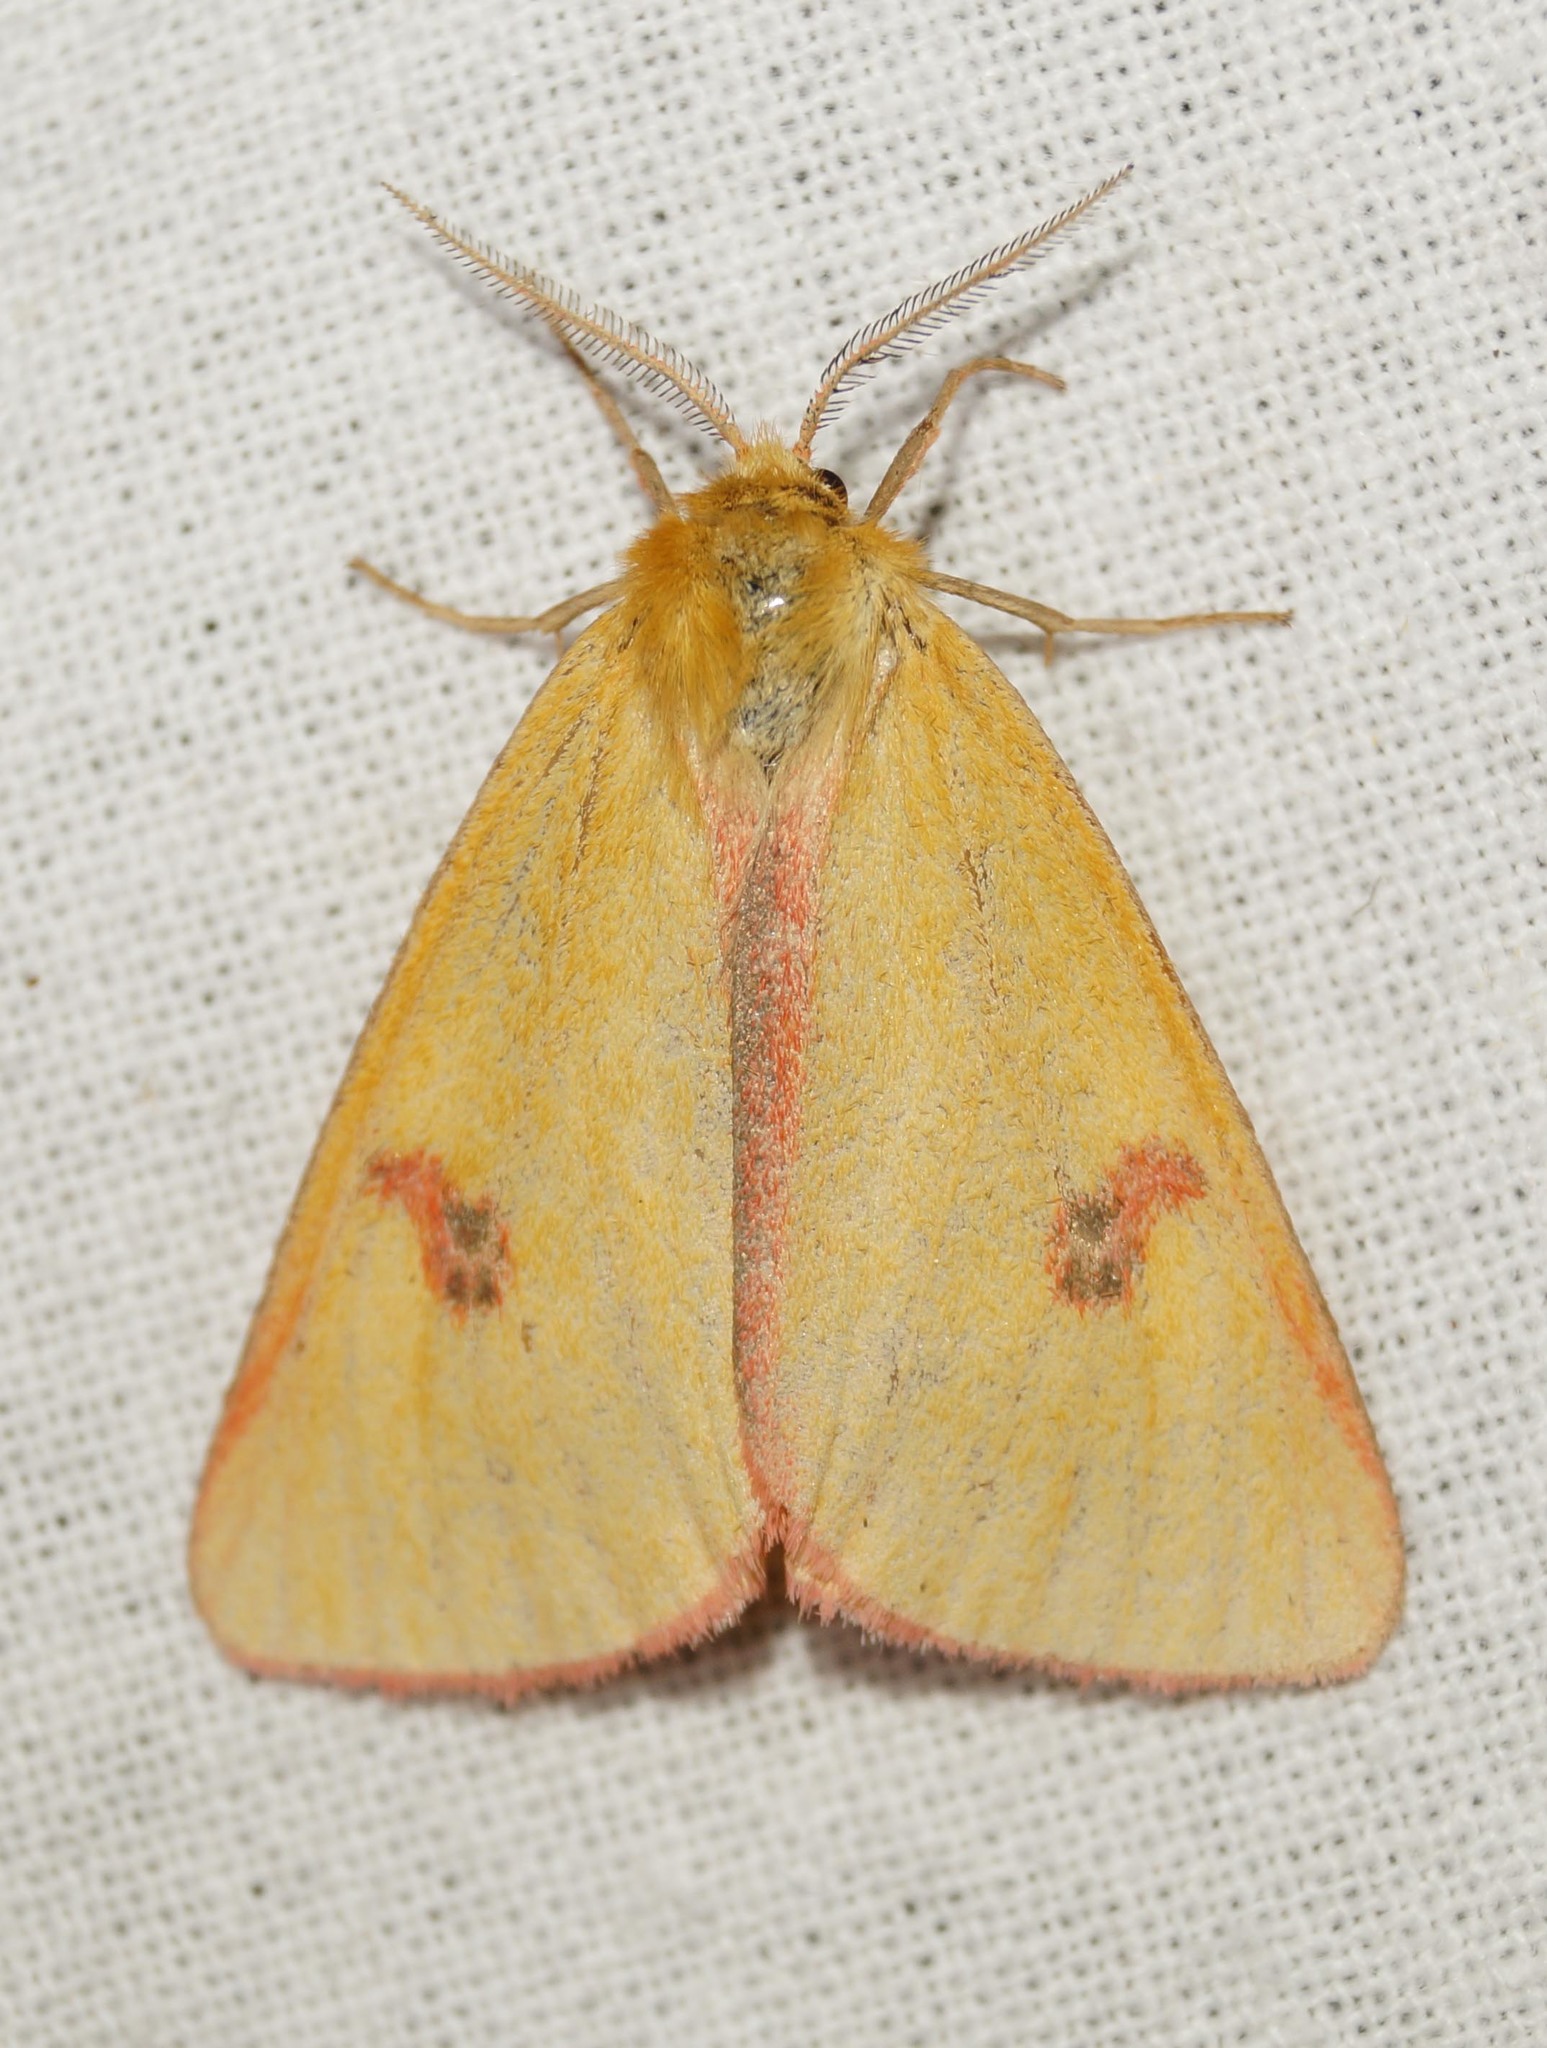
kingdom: Animalia
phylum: Arthropoda
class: Insecta
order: Lepidoptera
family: Erebidae
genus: Diacrisia
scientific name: Diacrisia sannio
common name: Clouded buff
